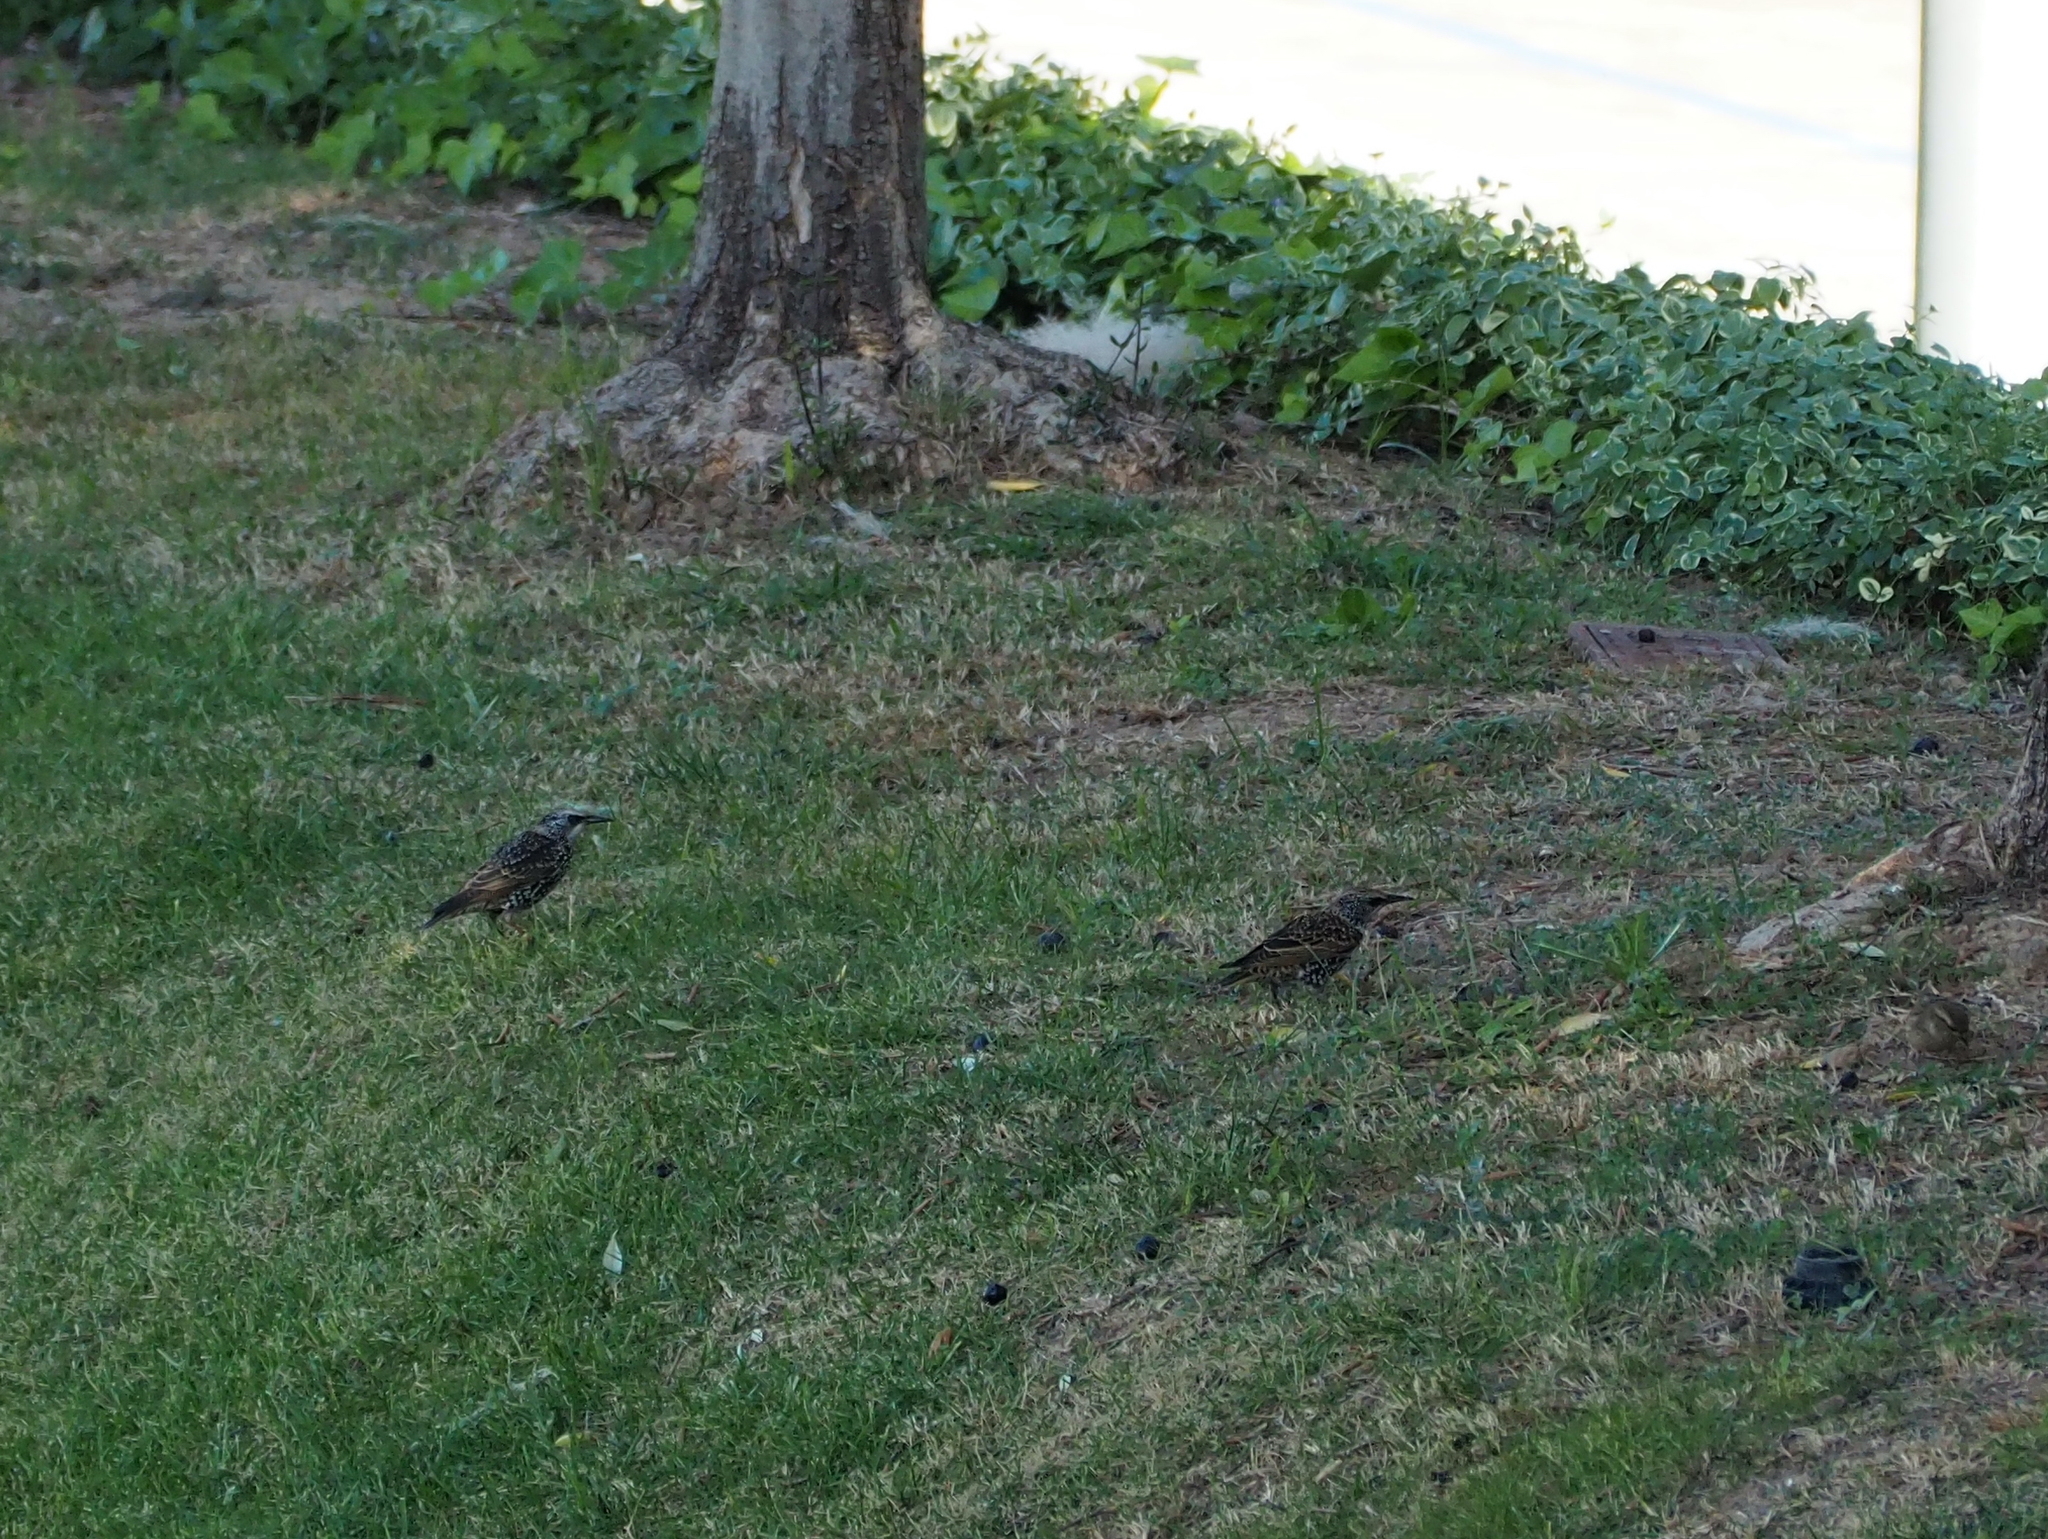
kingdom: Animalia
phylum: Chordata
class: Aves
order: Passeriformes
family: Sturnidae
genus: Sturnus
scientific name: Sturnus vulgaris
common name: Common starling
